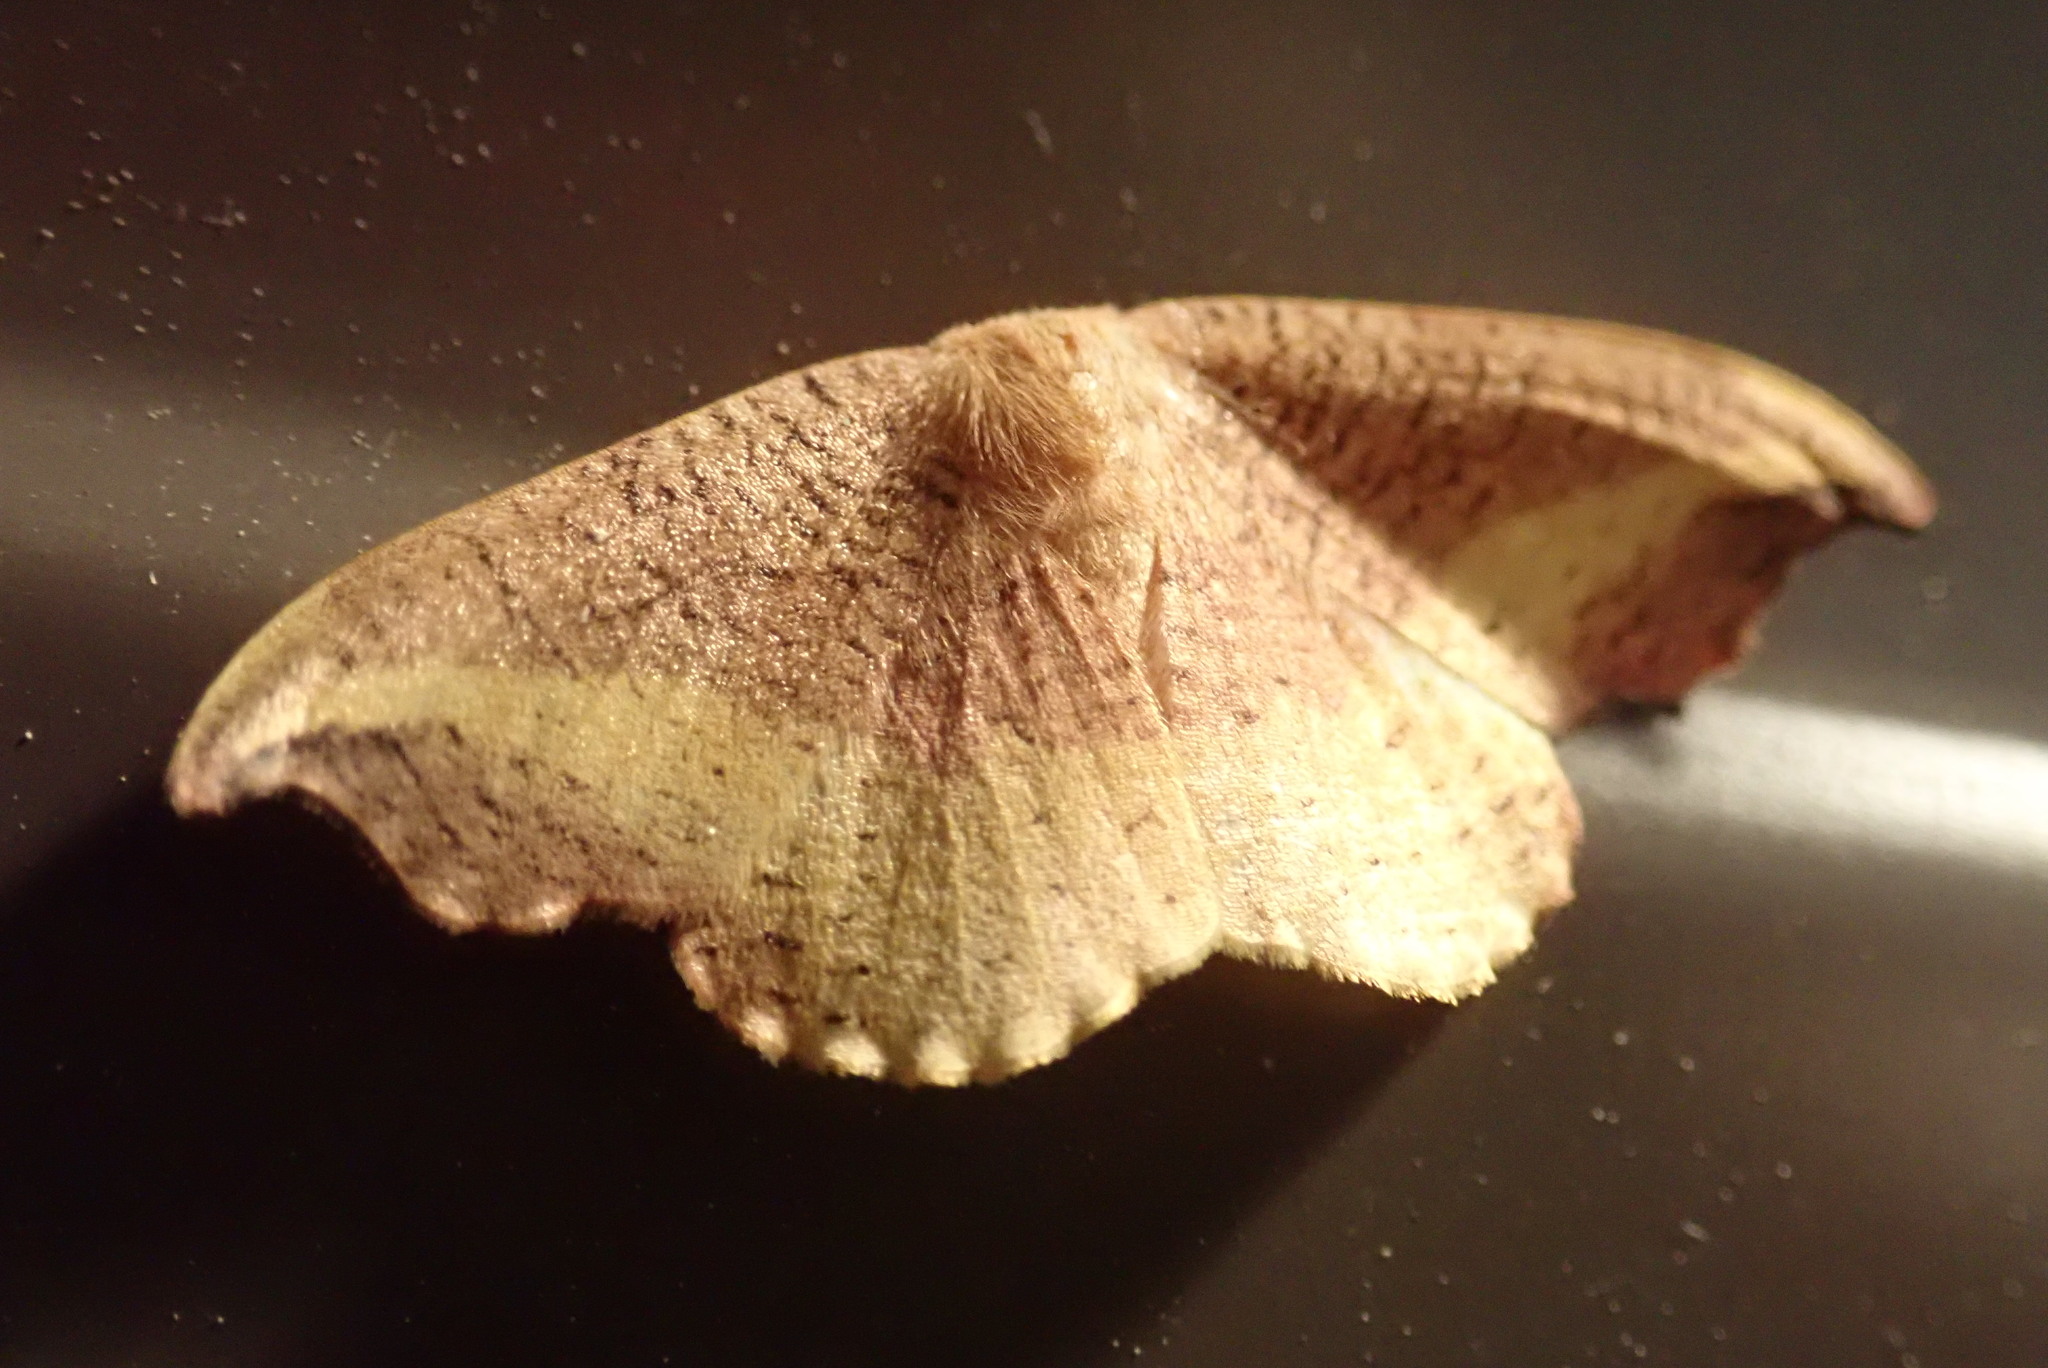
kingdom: Animalia
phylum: Arthropoda
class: Insecta
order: Lepidoptera
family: Drepanidae
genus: Oreta
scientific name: Oreta rosea
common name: Rose hooktip
